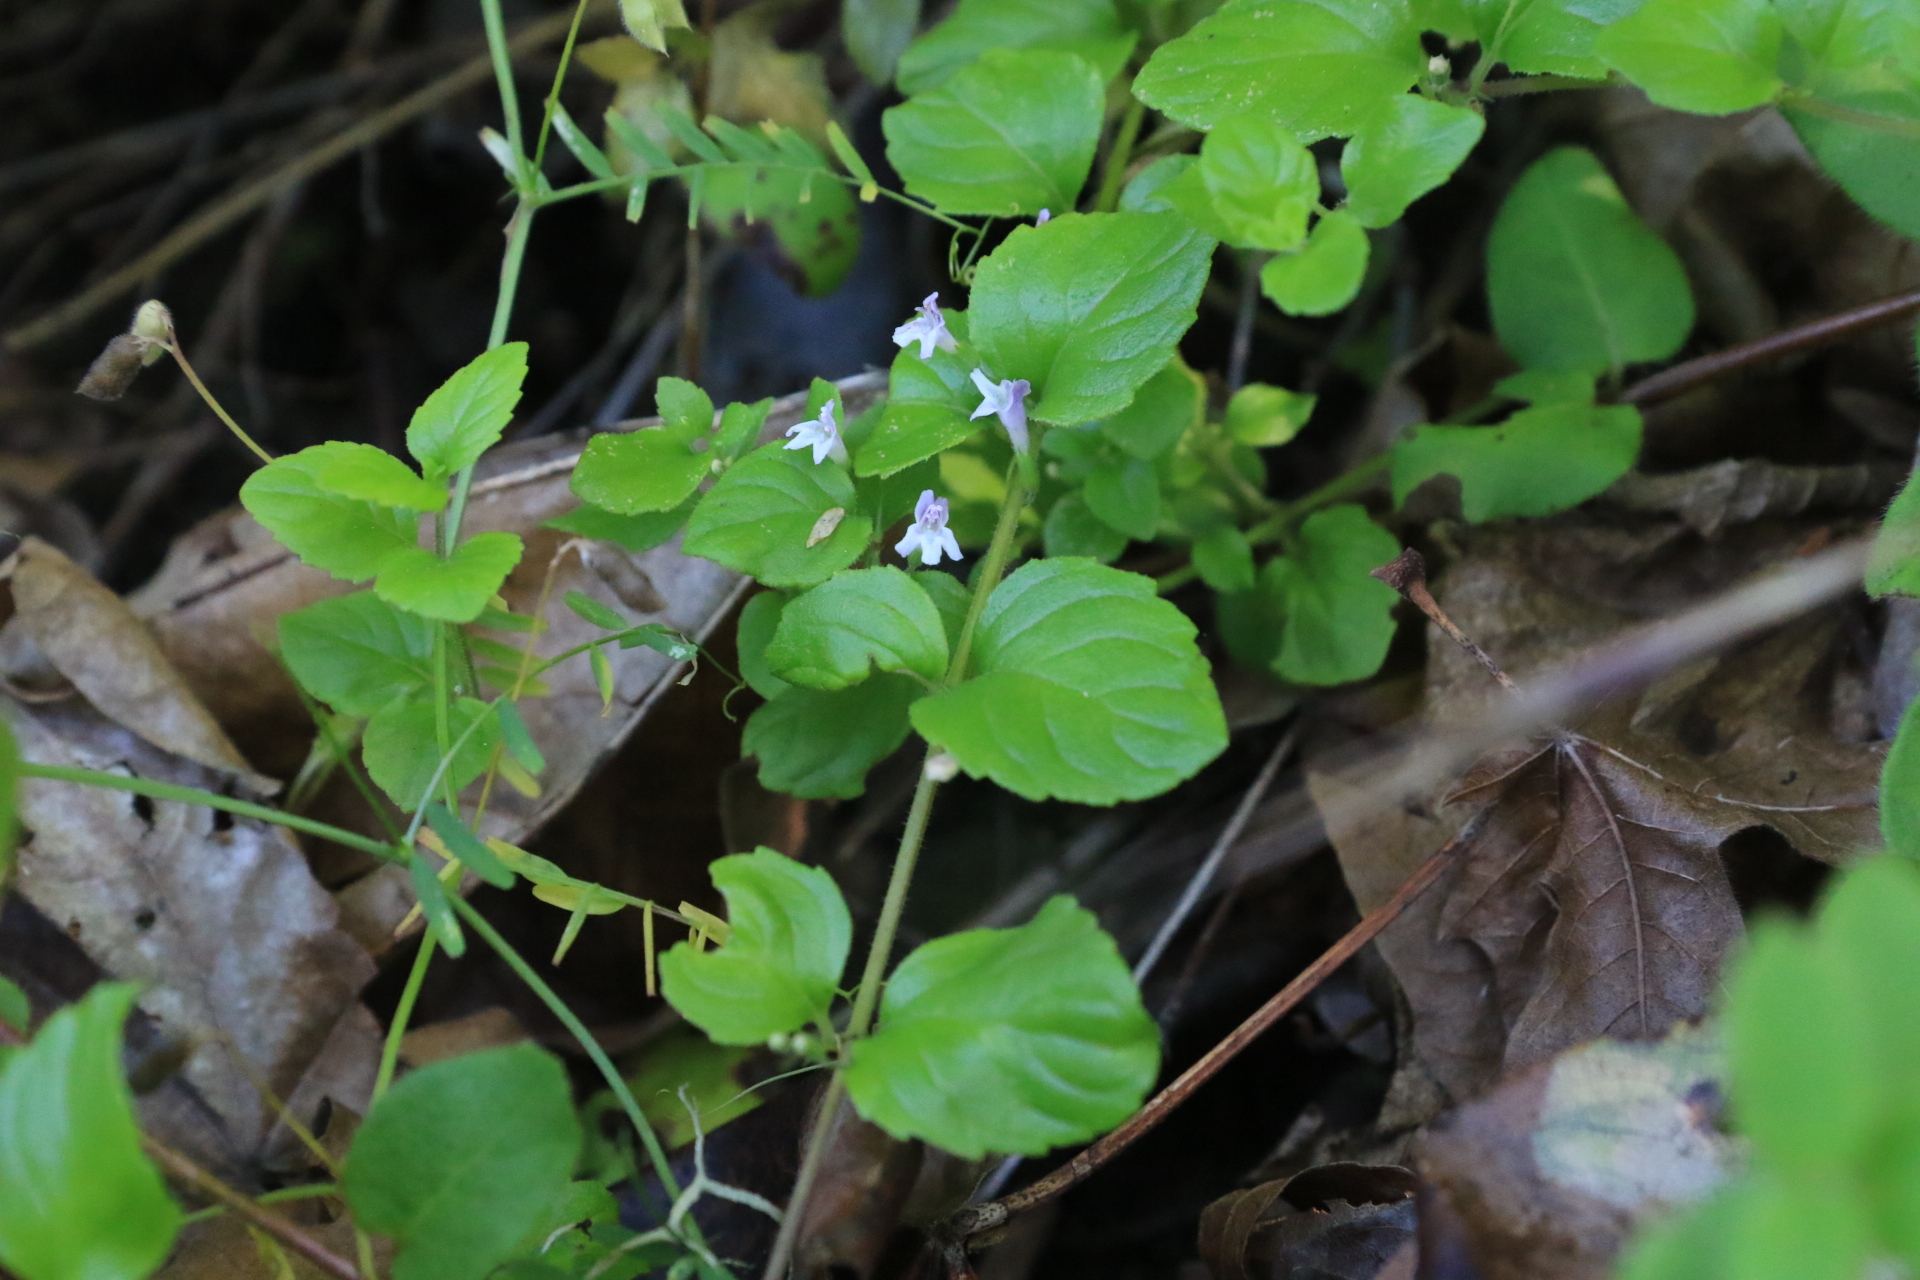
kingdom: Plantae
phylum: Tracheophyta
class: Magnoliopsida
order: Lamiales
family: Lamiaceae
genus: Micromeria
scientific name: Micromeria douglasii
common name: Yerba buena
